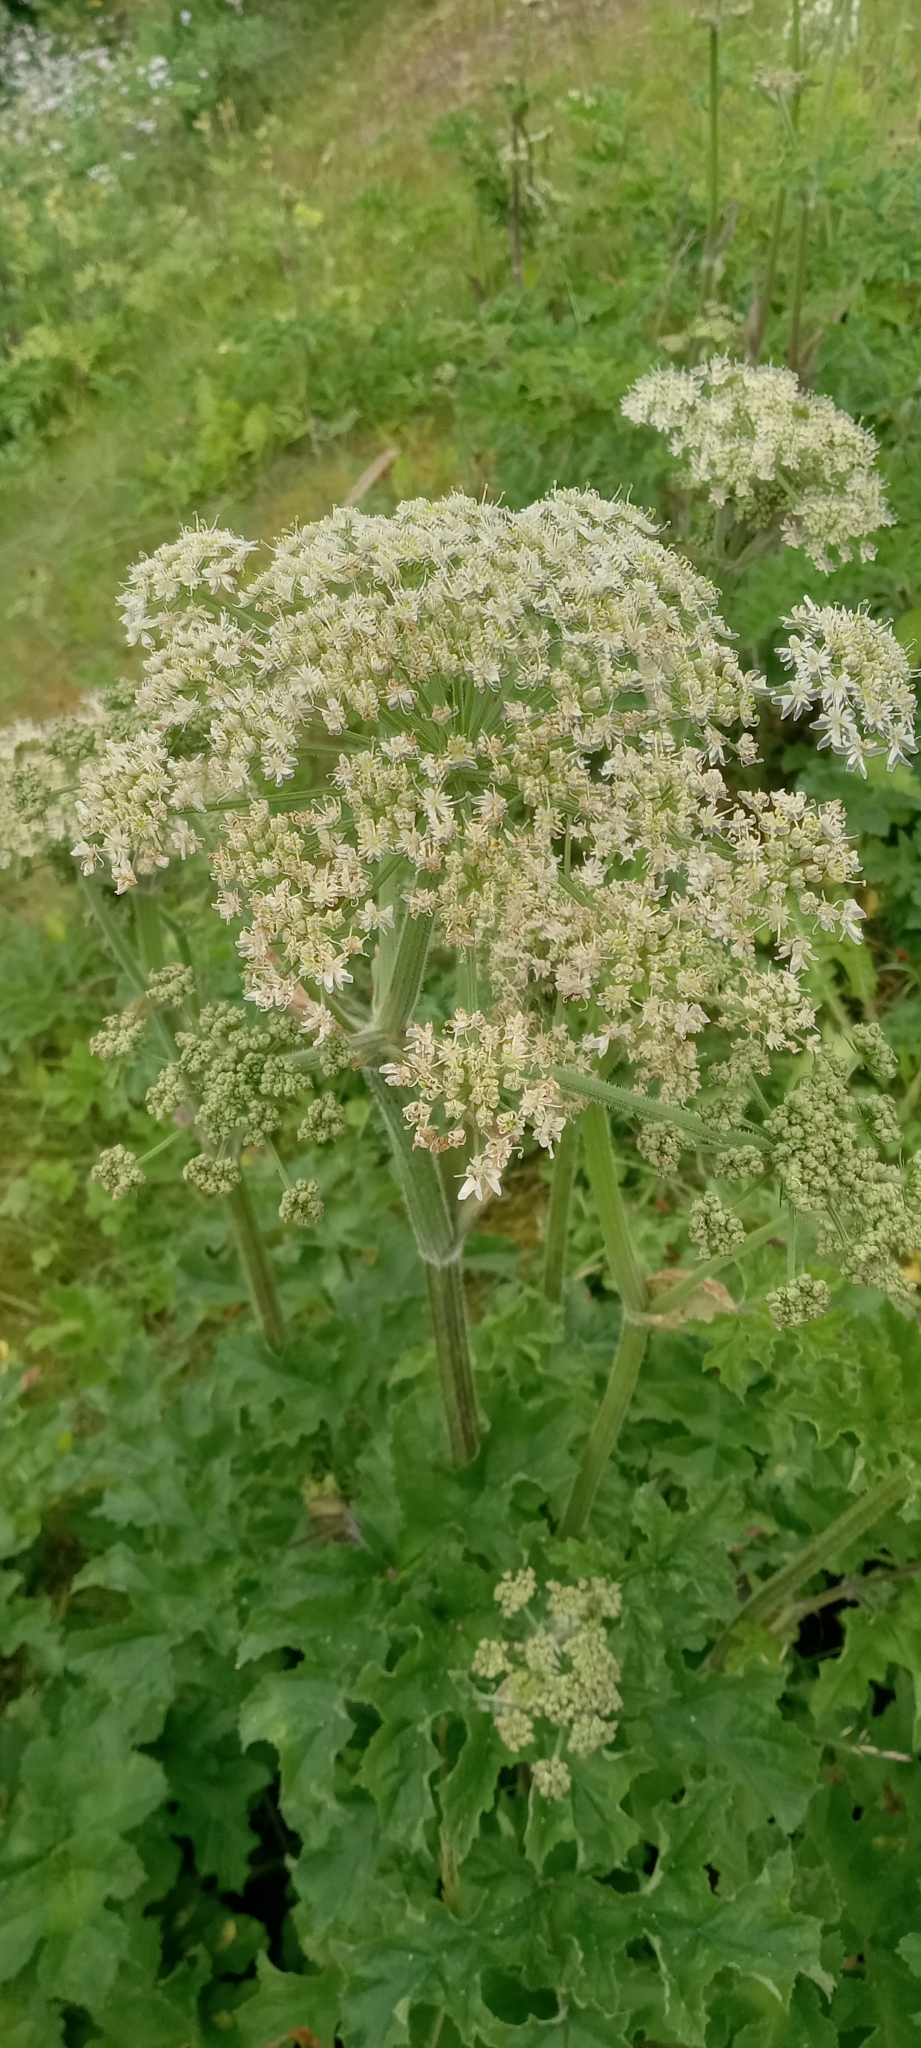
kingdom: Plantae
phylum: Tracheophyta
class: Magnoliopsida
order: Apiales
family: Apiaceae
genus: Heracleum
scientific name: Heracleum sphondylium
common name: Hogweed
